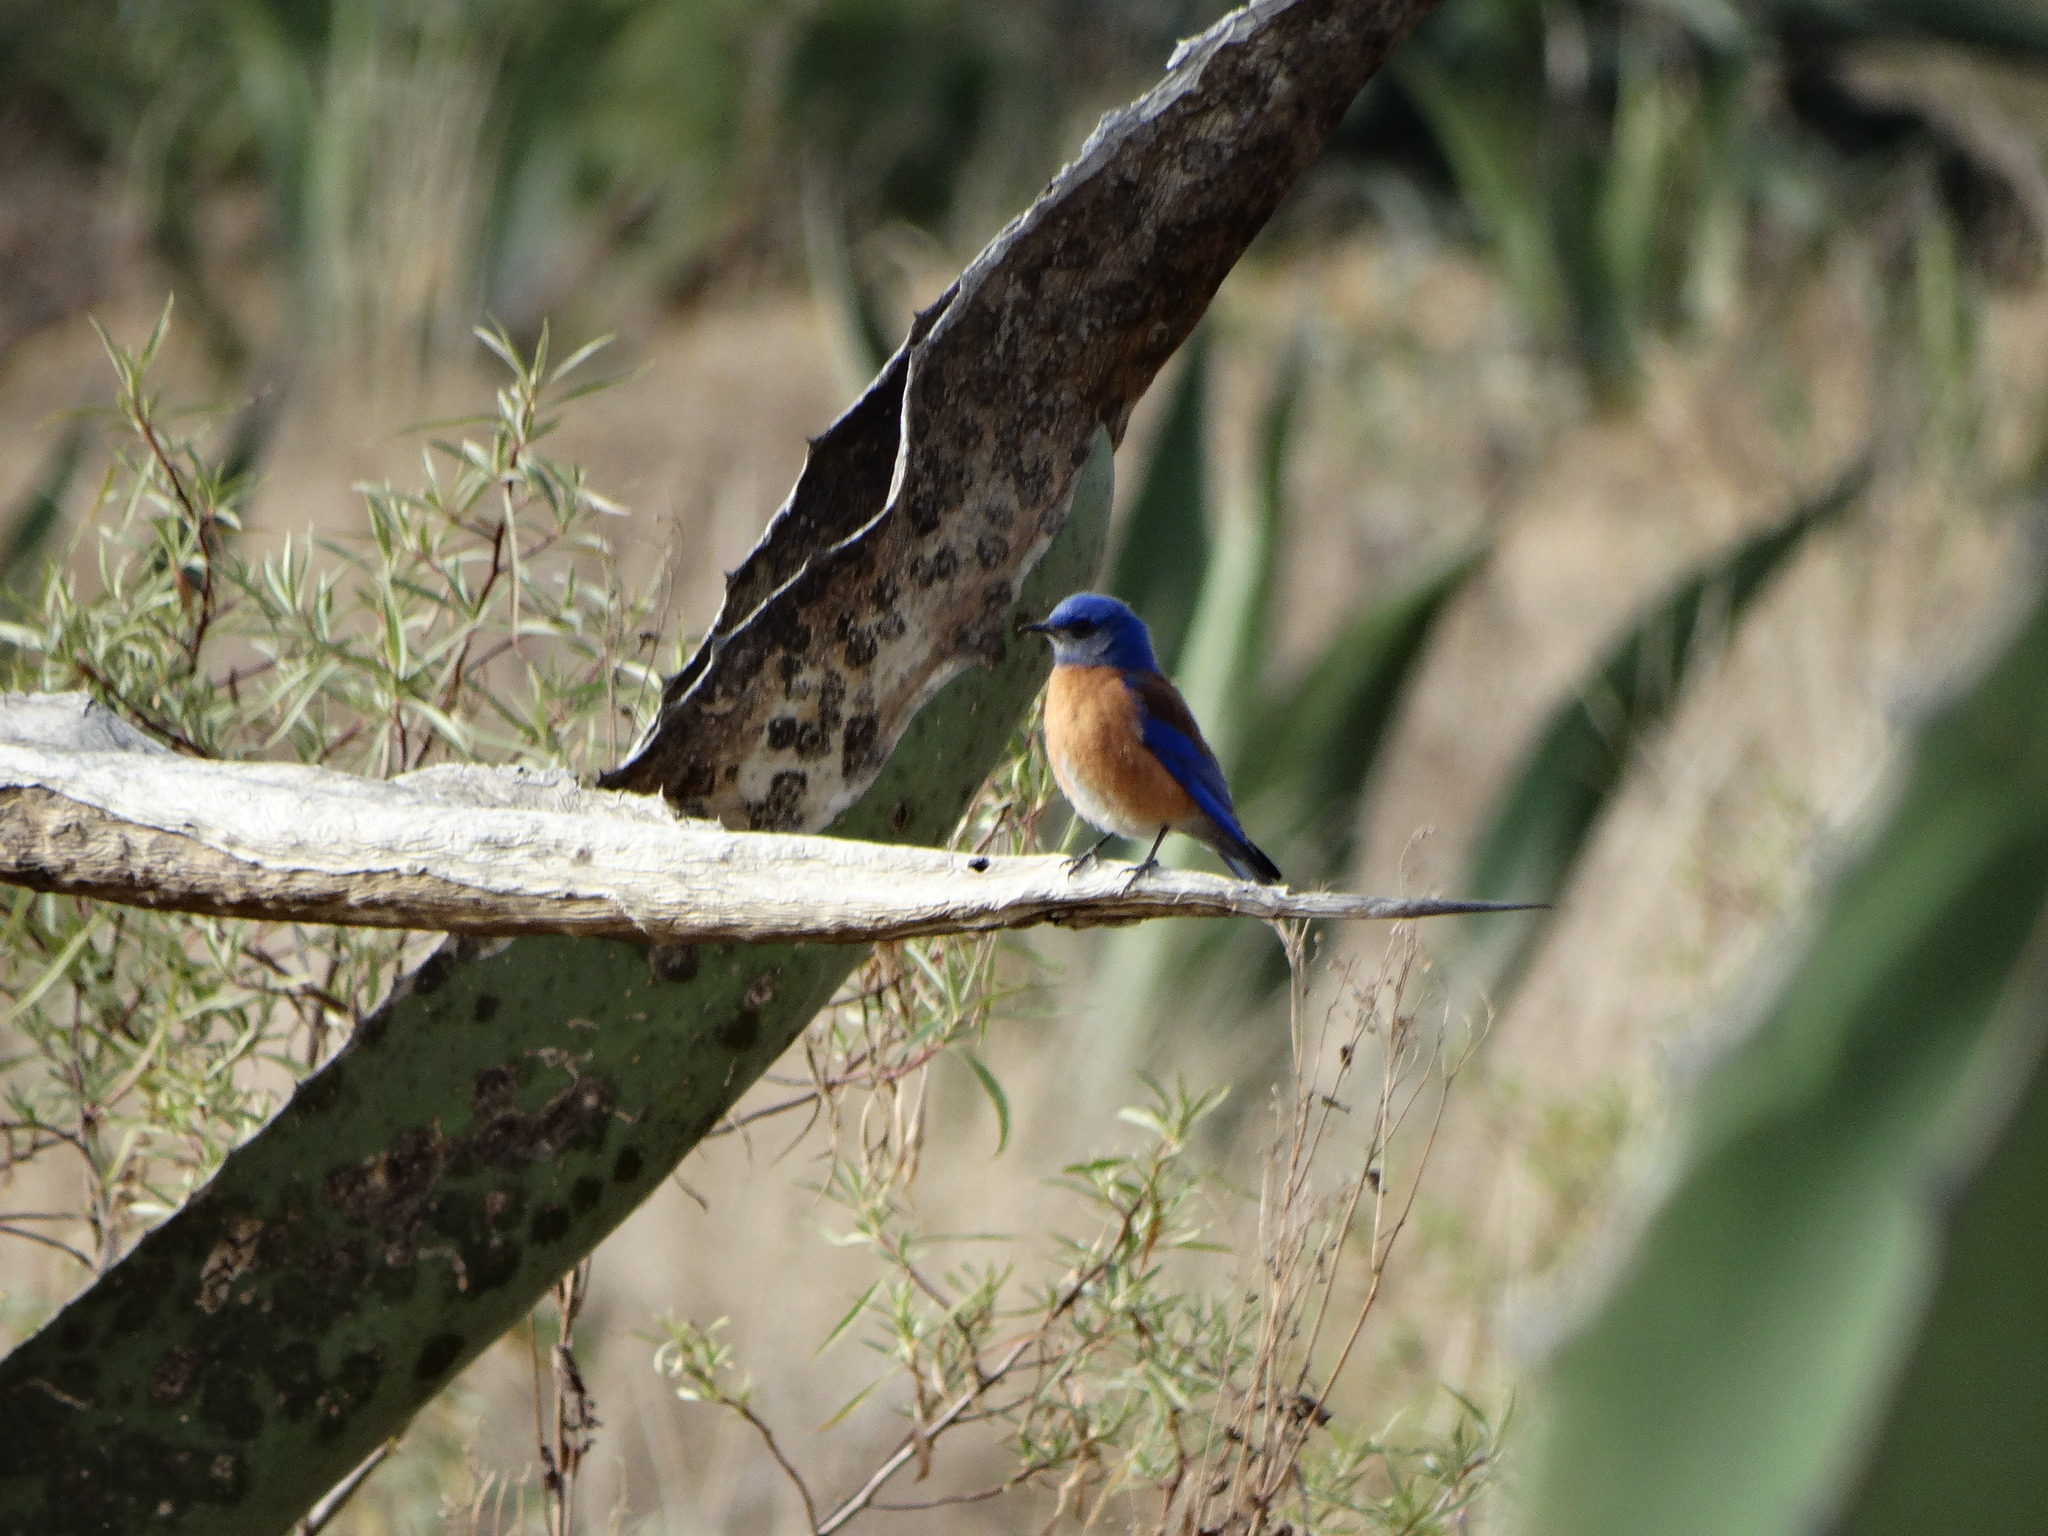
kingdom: Animalia
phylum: Chordata
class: Aves
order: Passeriformes
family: Turdidae
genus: Sialia
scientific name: Sialia mexicana
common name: Western bluebird
